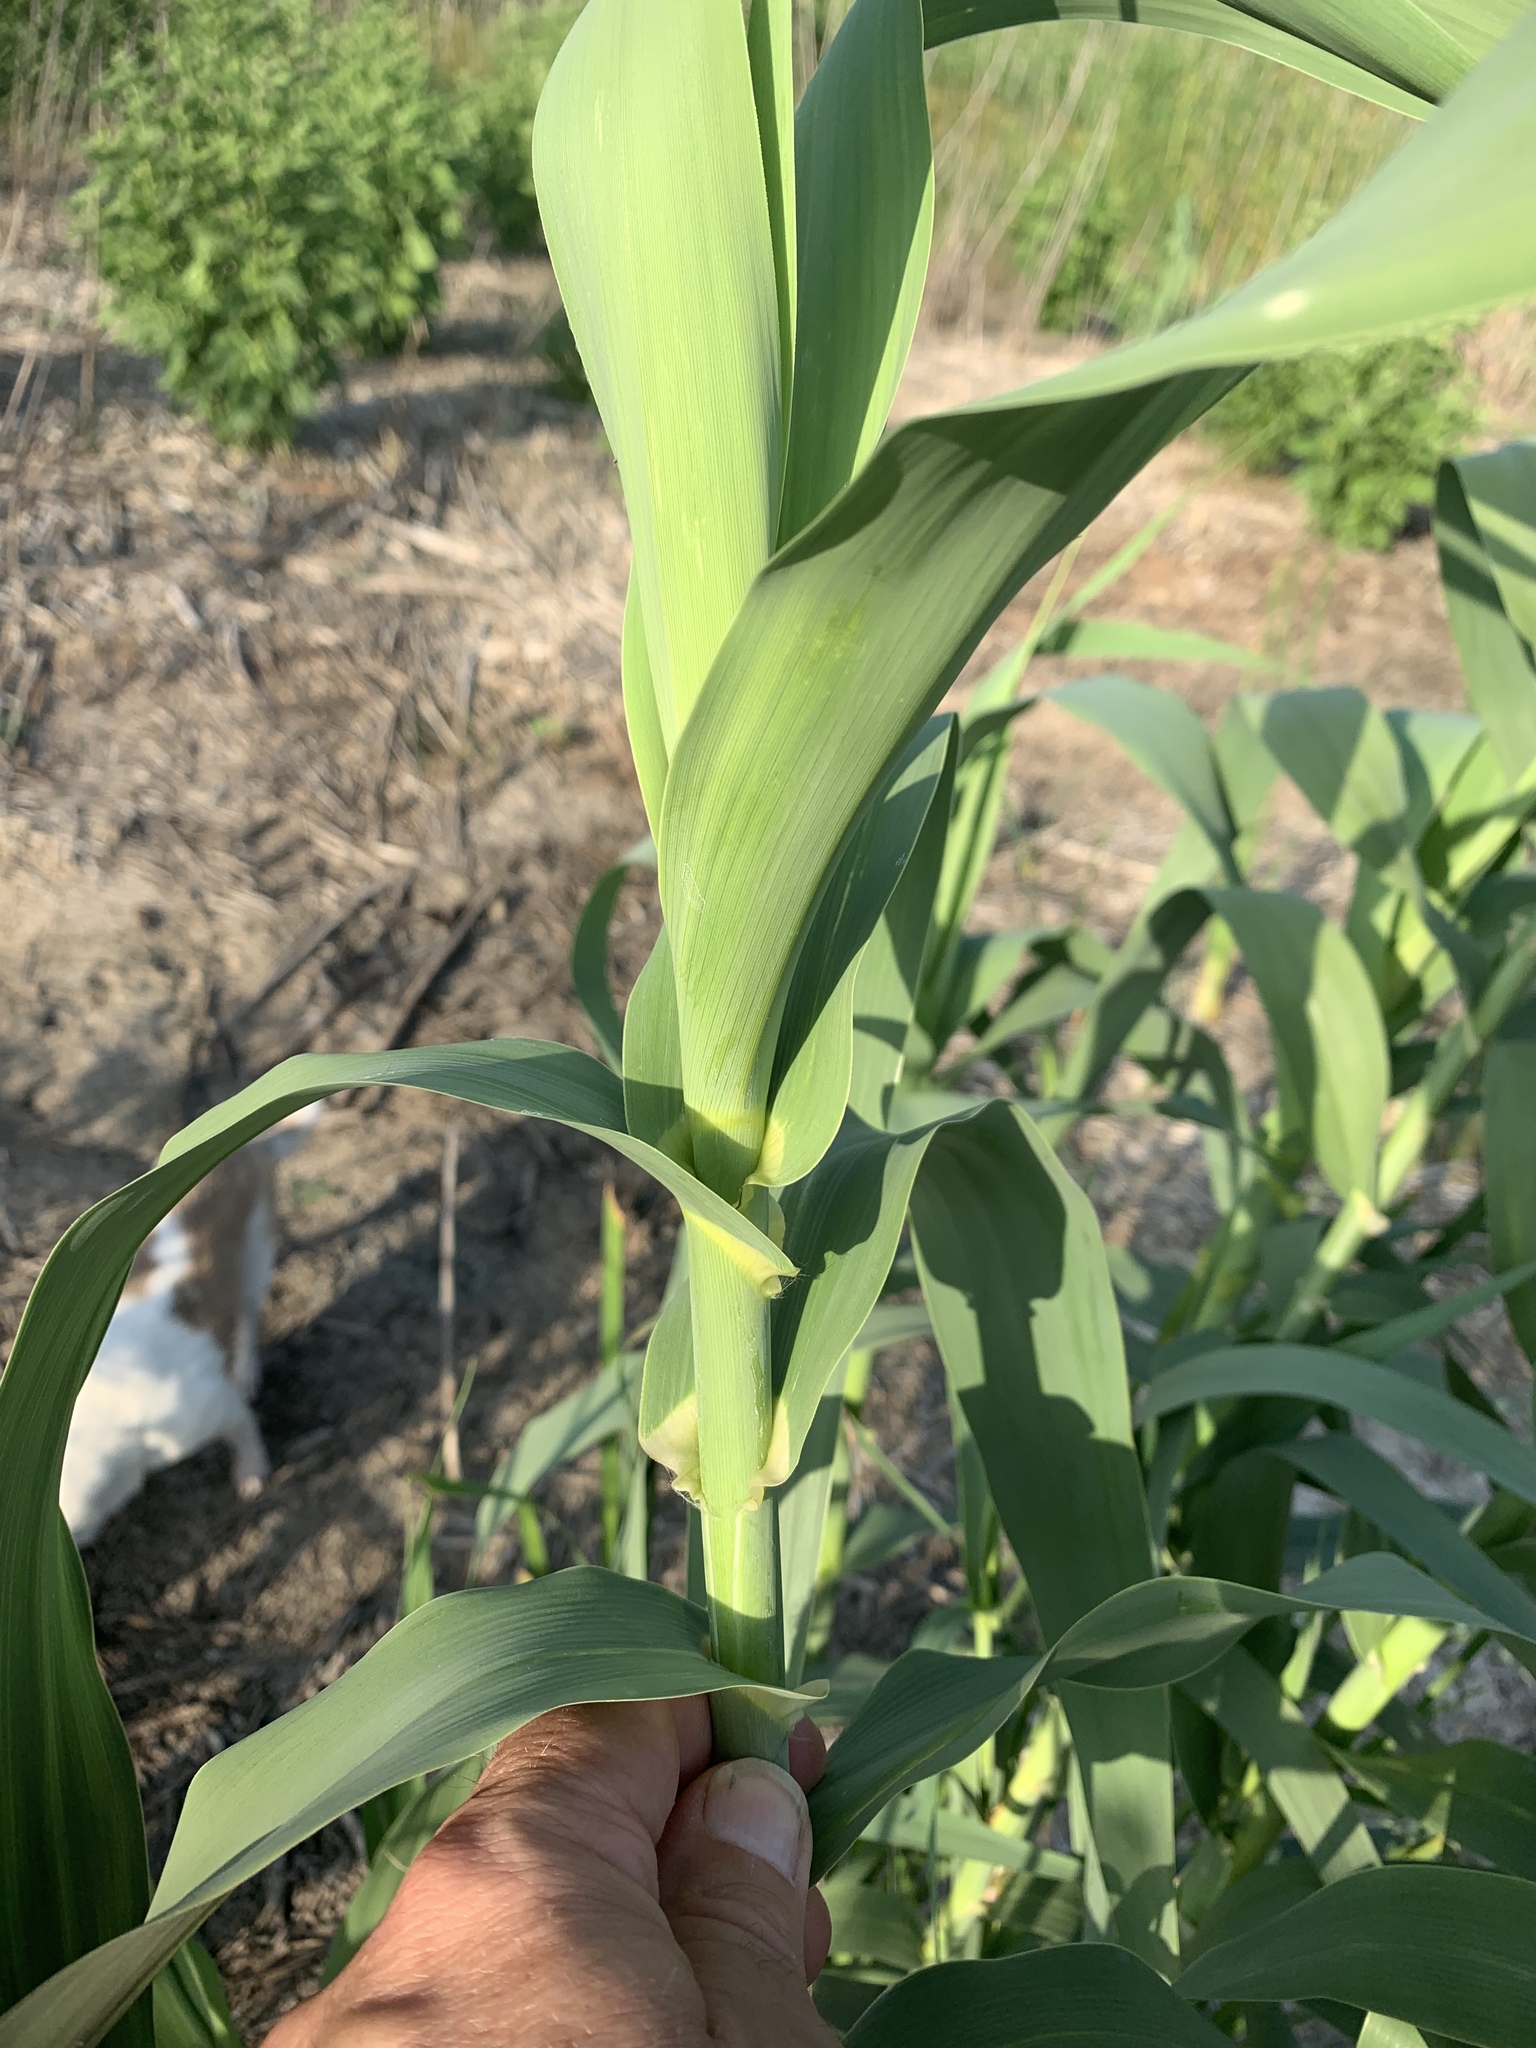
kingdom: Plantae
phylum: Tracheophyta
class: Liliopsida
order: Poales
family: Poaceae
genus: Arundo
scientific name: Arundo donax
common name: Giant reed
